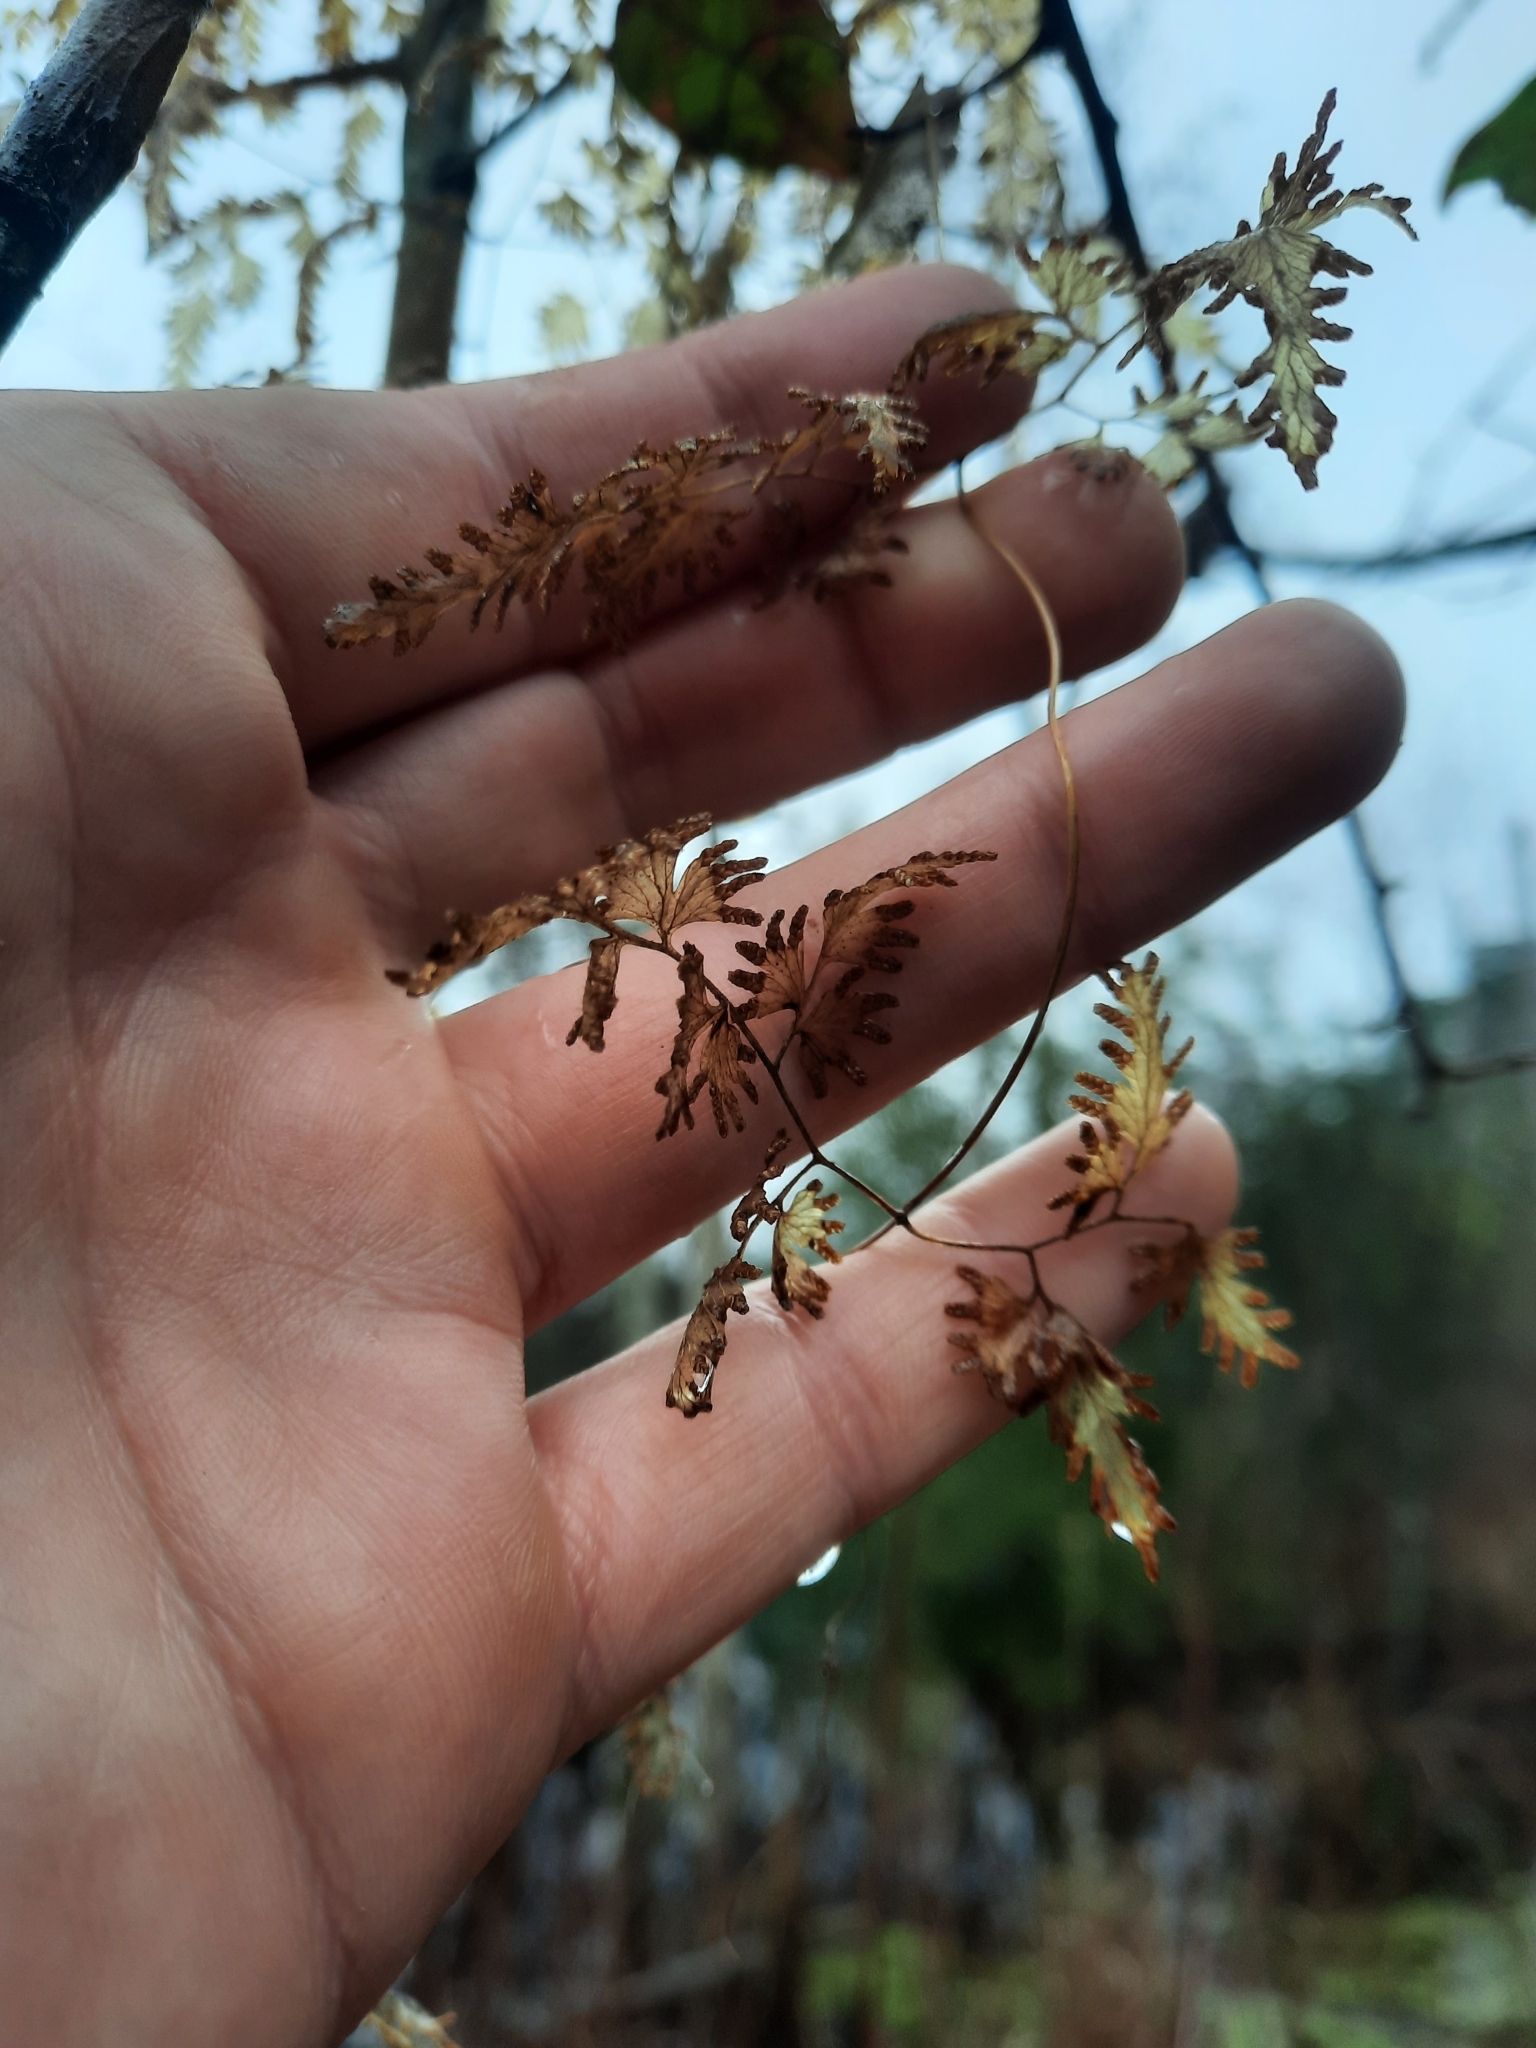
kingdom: Plantae
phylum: Tracheophyta
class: Polypodiopsida
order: Schizaeales
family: Lygodiaceae
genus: Lygodium
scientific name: Lygodium japonicum
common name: Japanese climbing fern
